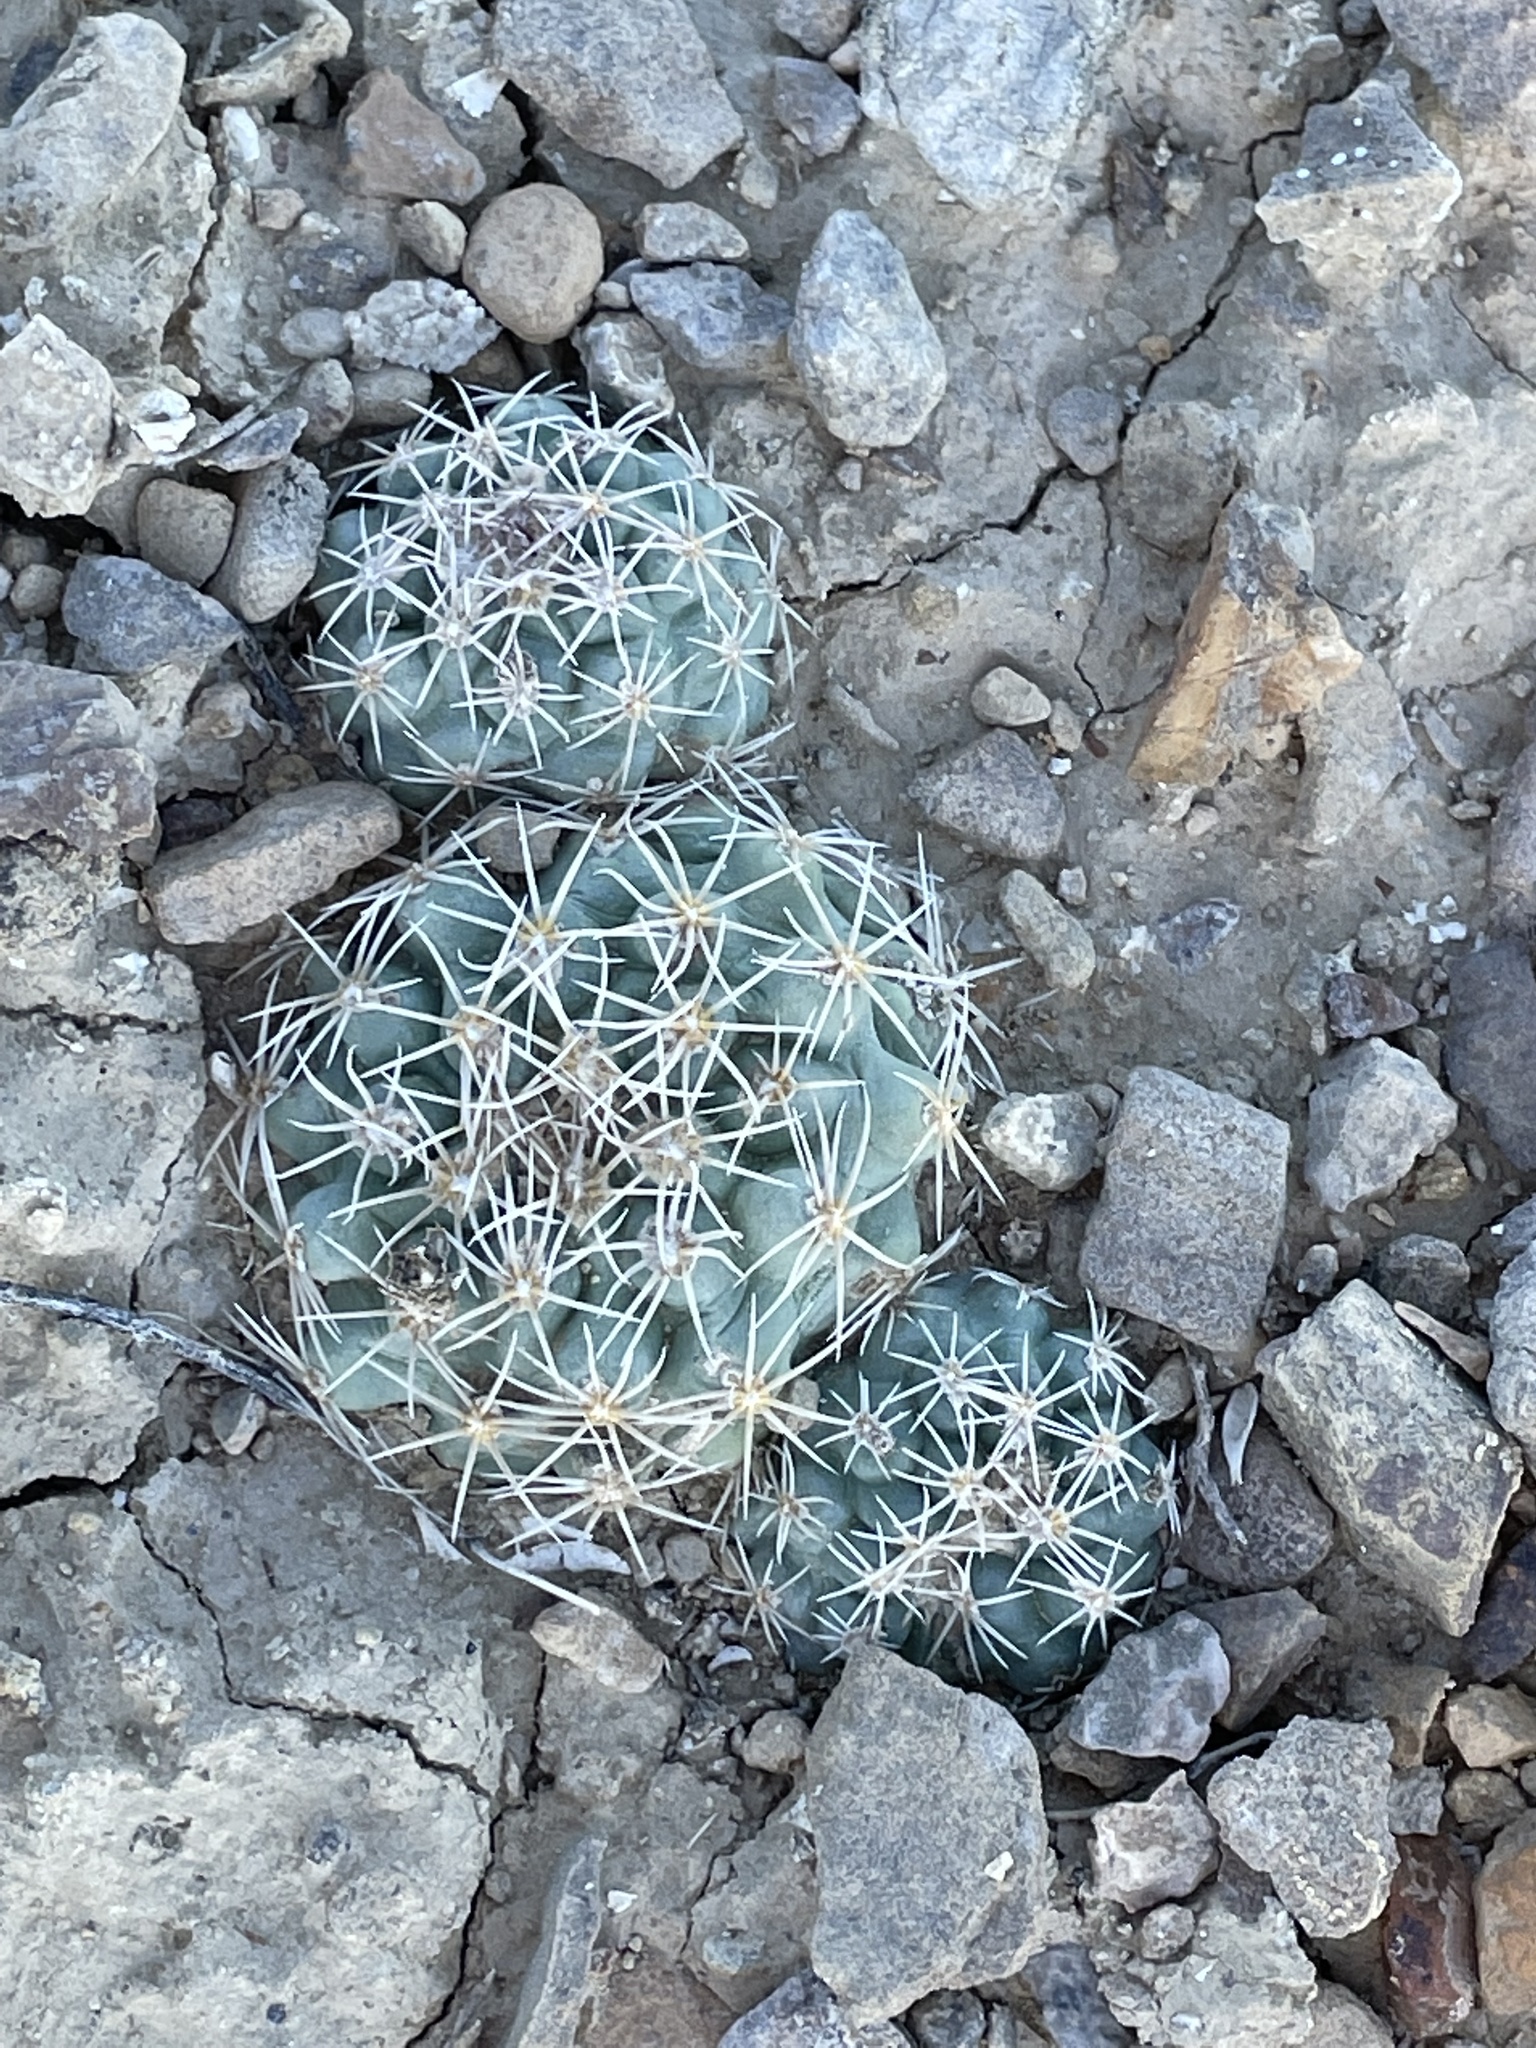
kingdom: Plantae
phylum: Tracheophyta
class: Magnoliopsida
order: Caryophyllales
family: Cactaceae
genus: Sclerocactus
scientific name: Sclerocactus mesae-verdae
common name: Mesa verde cactus
